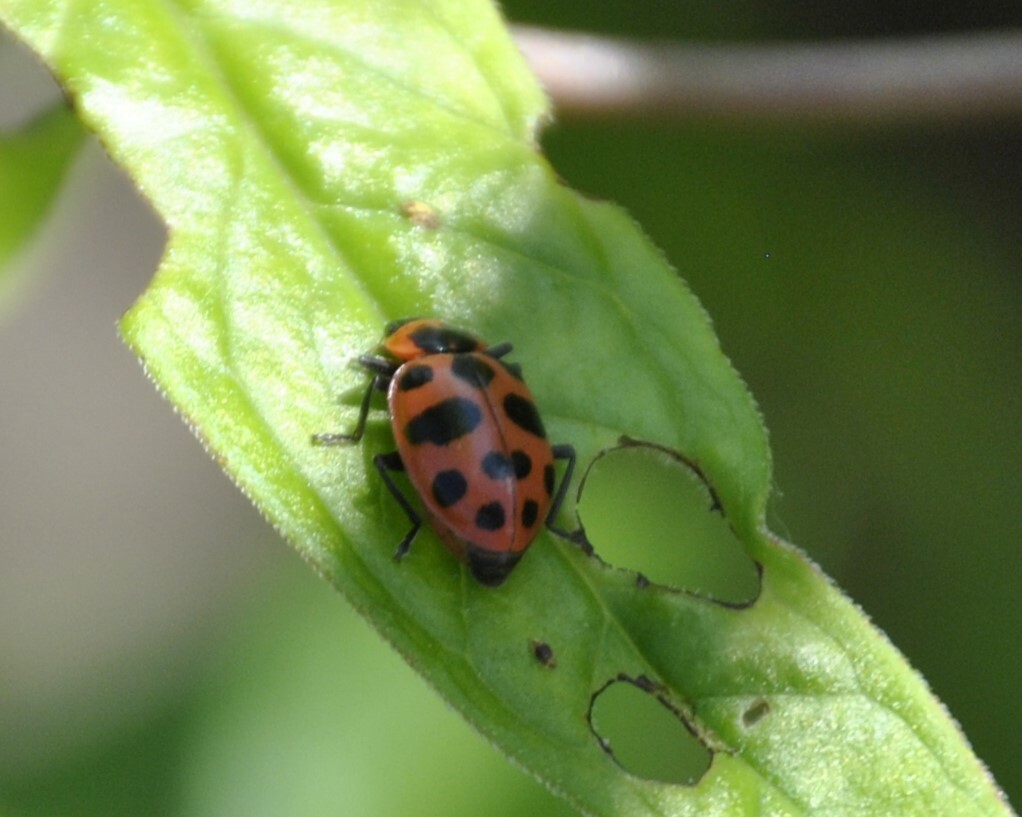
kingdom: Animalia
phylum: Arthropoda
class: Insecta
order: Coleoptera
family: Coccinellidae
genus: Coleomegilla
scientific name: Coleomegilla maculata
